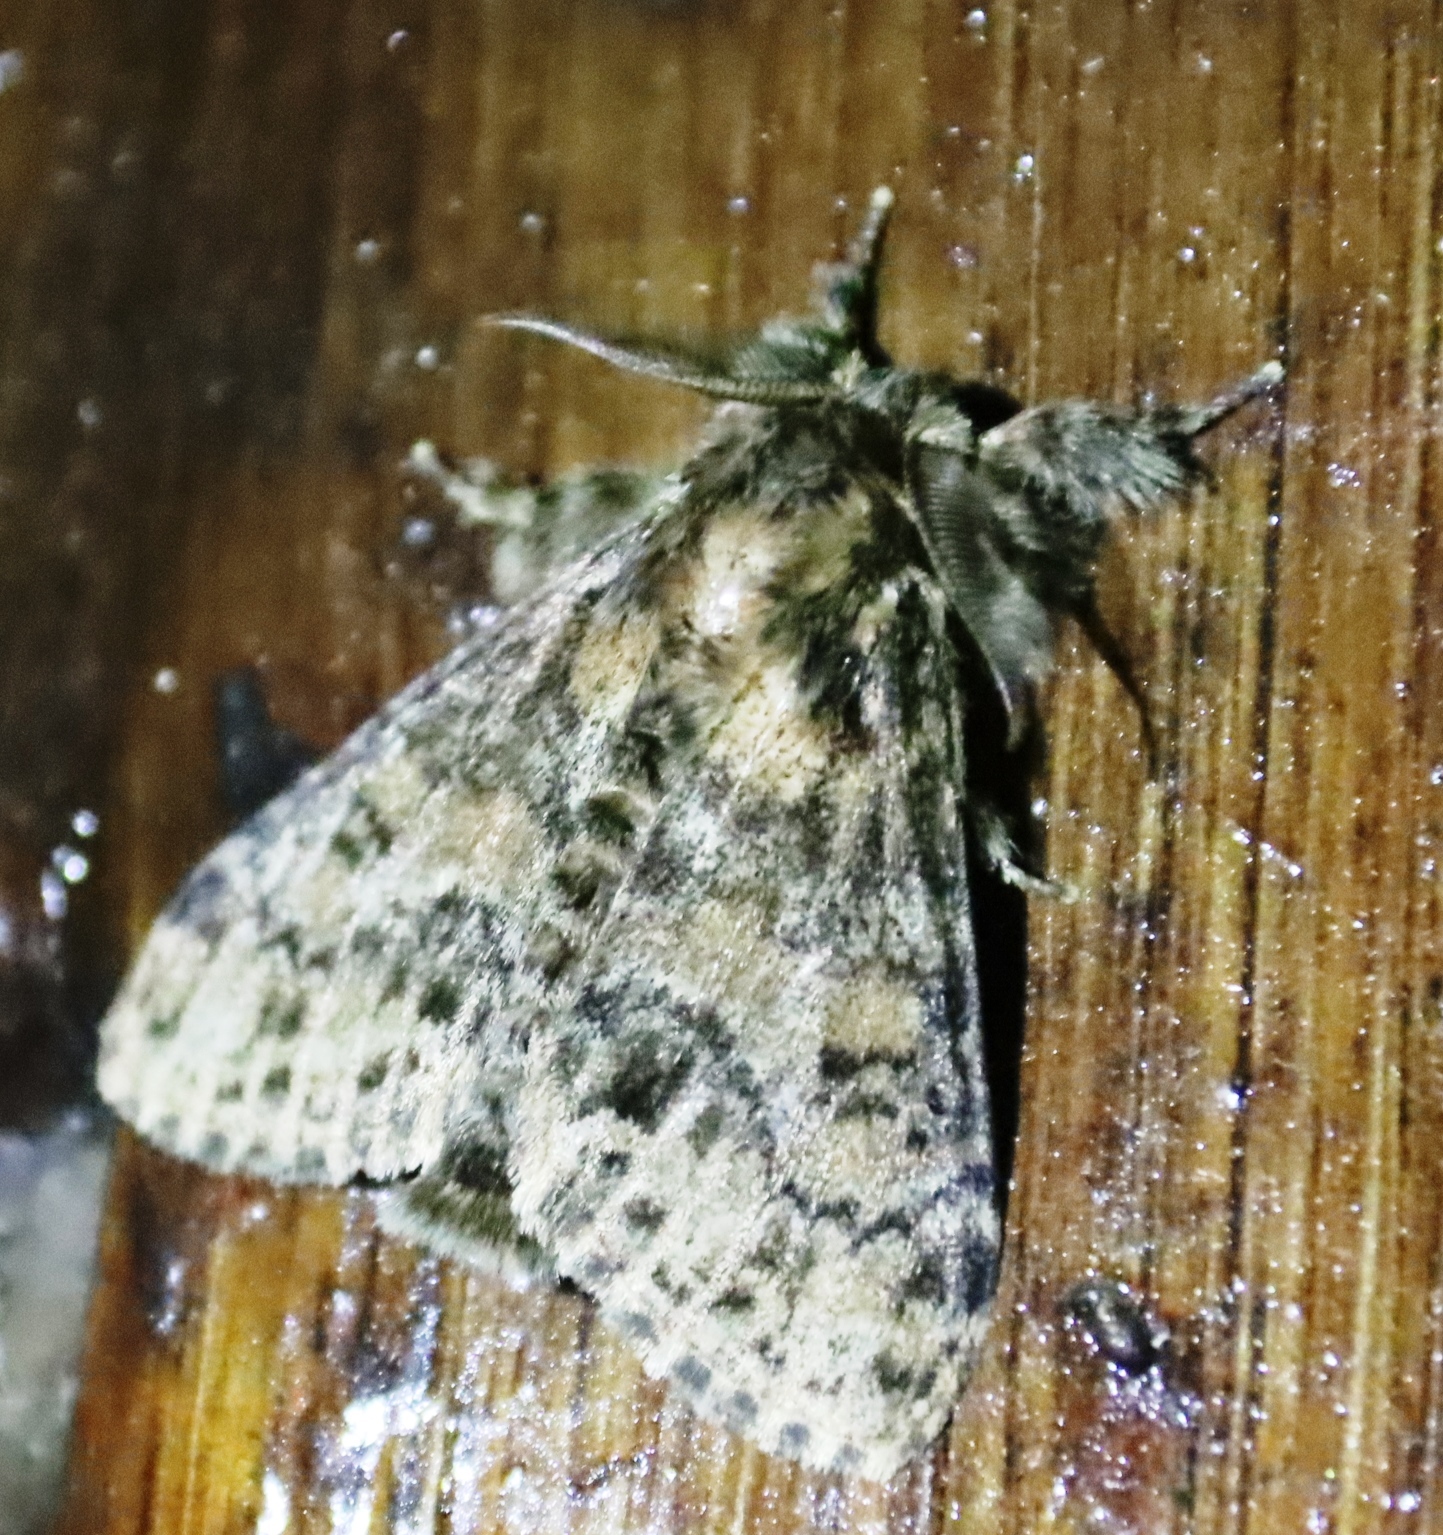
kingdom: Animalia
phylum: Arthropoda
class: Insecta
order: Lepidoptera
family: Erebidae
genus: Dasychira
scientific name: Dasychira extorta
